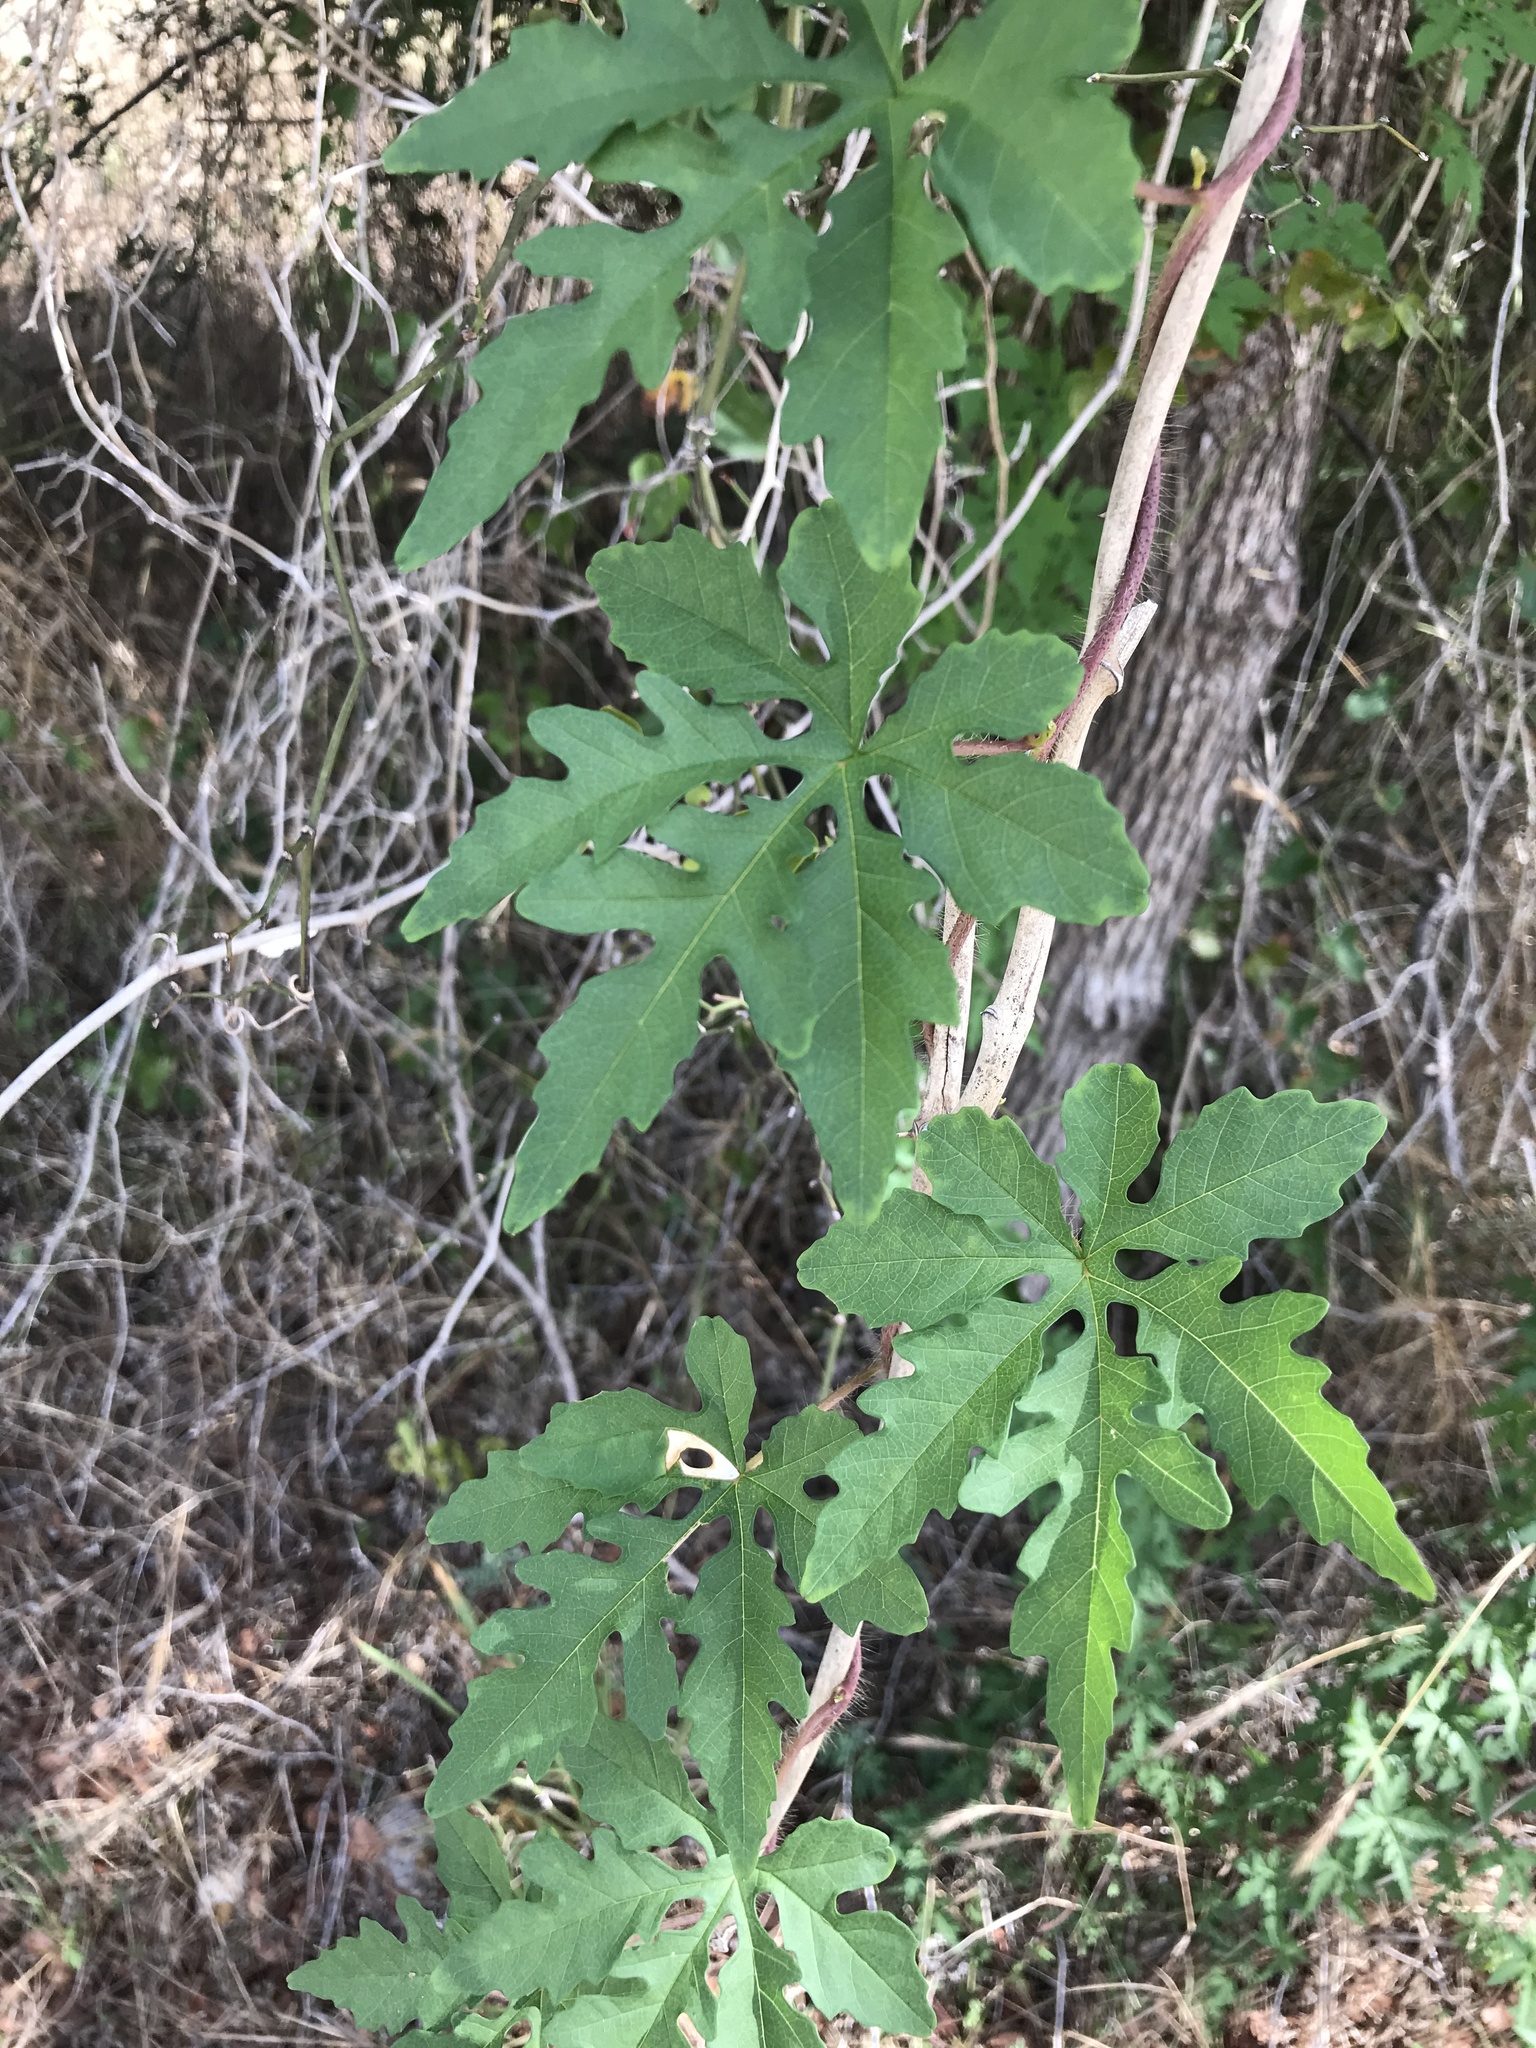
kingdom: Plantae
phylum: Tracheophyta
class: Magnoliopsida
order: Solanales
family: Convolvulaceae
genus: Distimake
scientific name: Distimake dissectus
